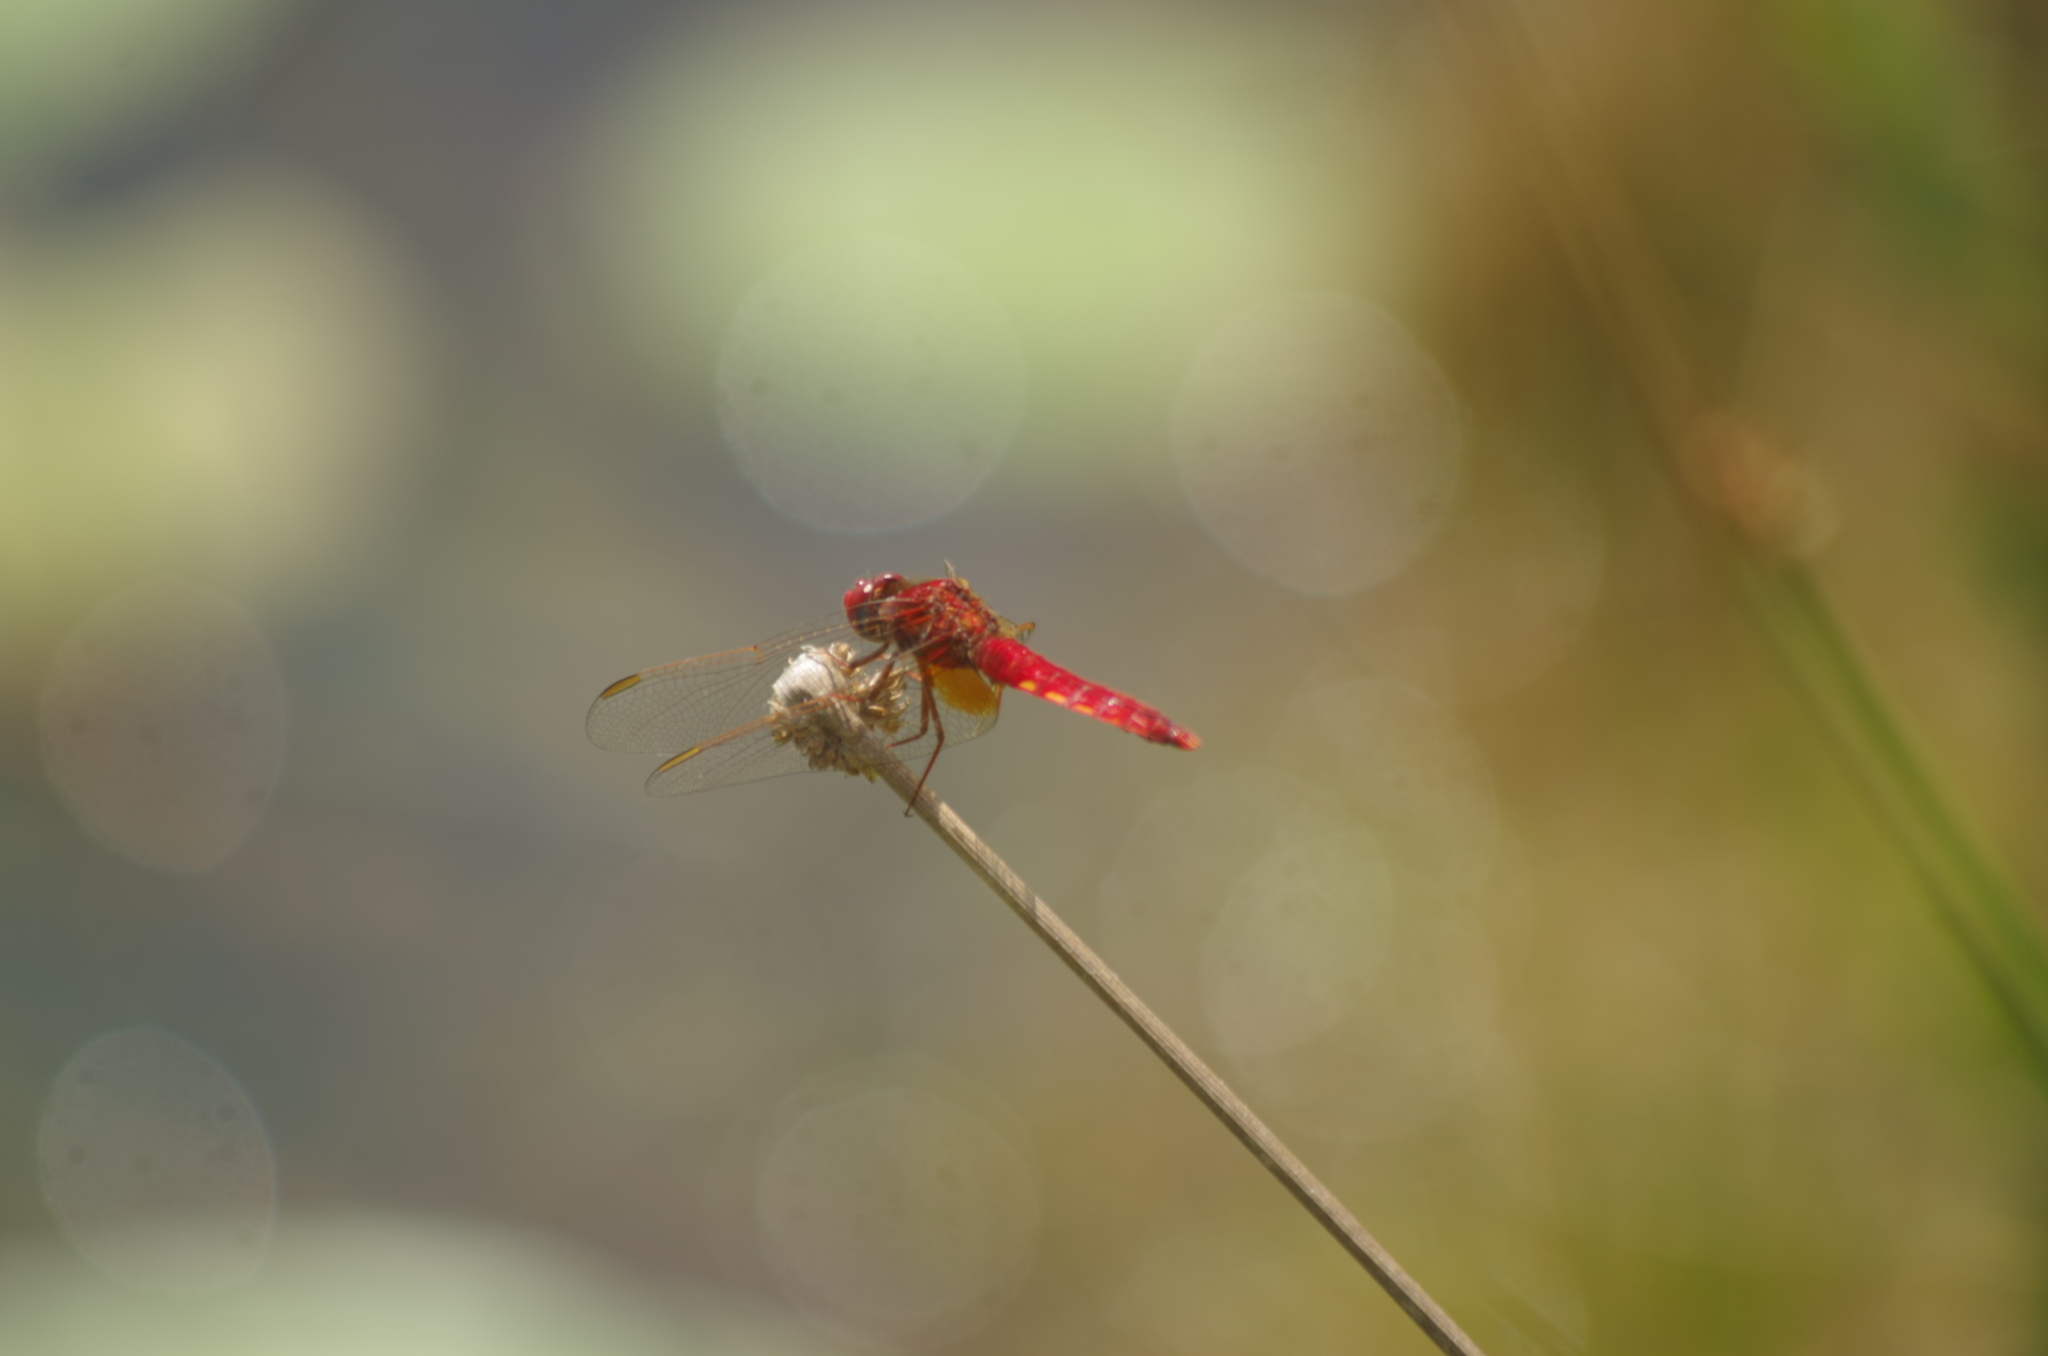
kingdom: Animalia
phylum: Arthropoda
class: Insecta
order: Odonata
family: Libellulidae
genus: Crocothemis
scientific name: Crocothemis erythraea
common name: Scarlet dragonfly
